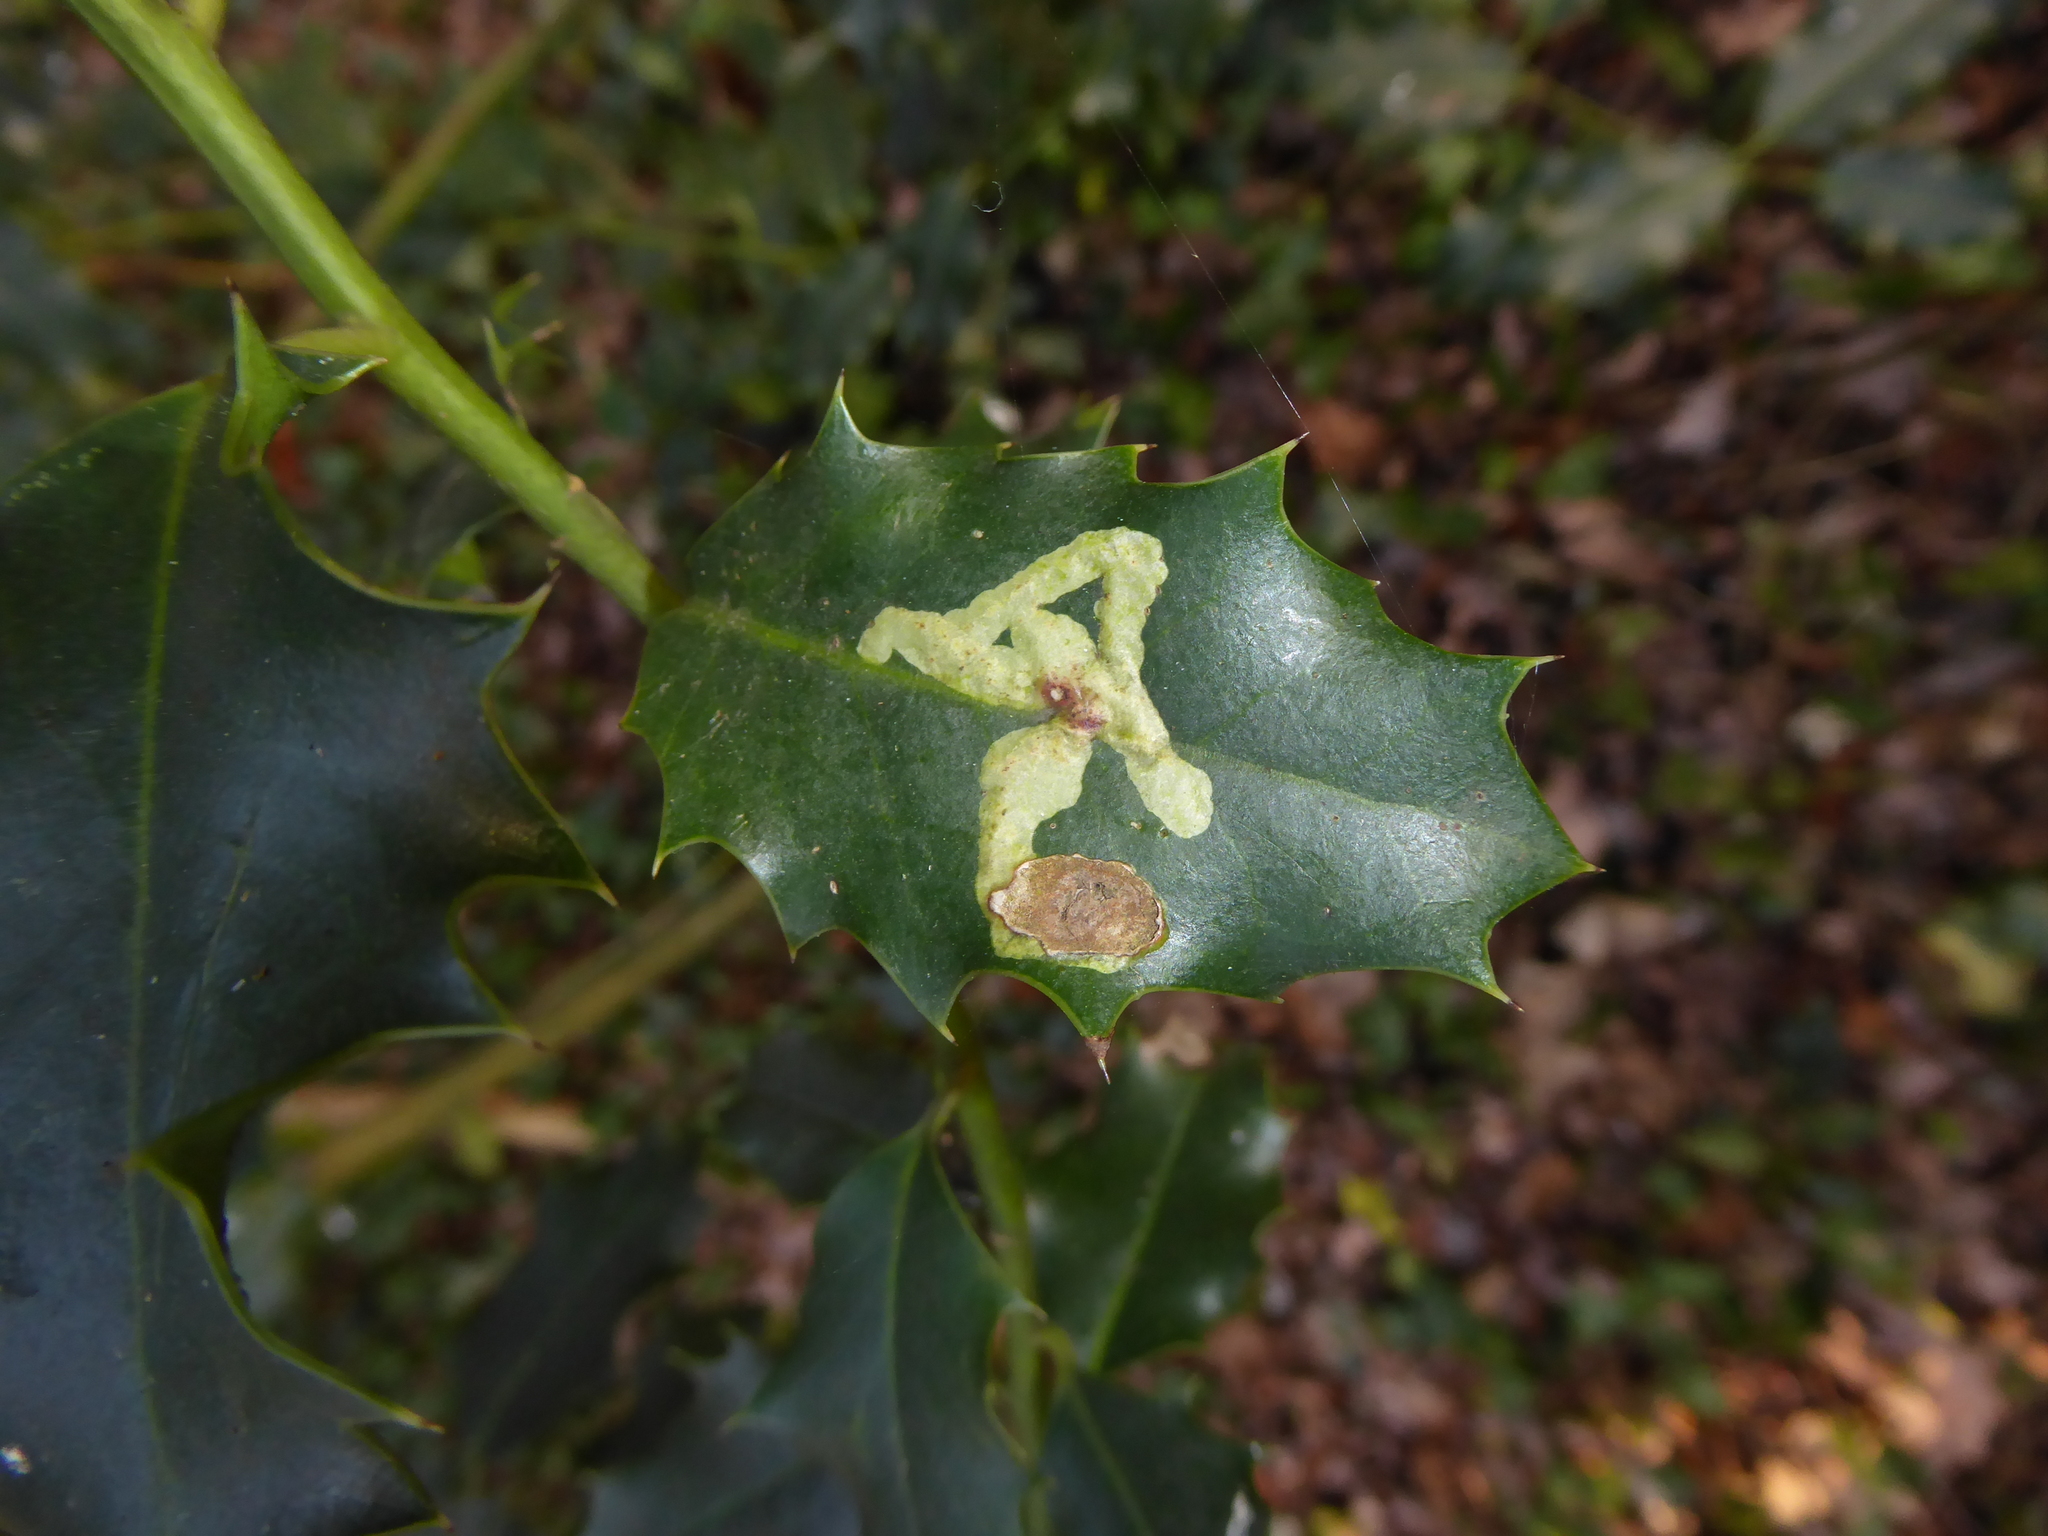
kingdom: Animalia
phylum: Arthropoda
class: Insecta
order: Diptera
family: Agromyzidae
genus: Phytomyza
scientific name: Phytomyza ilicis
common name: Holly leafminer
